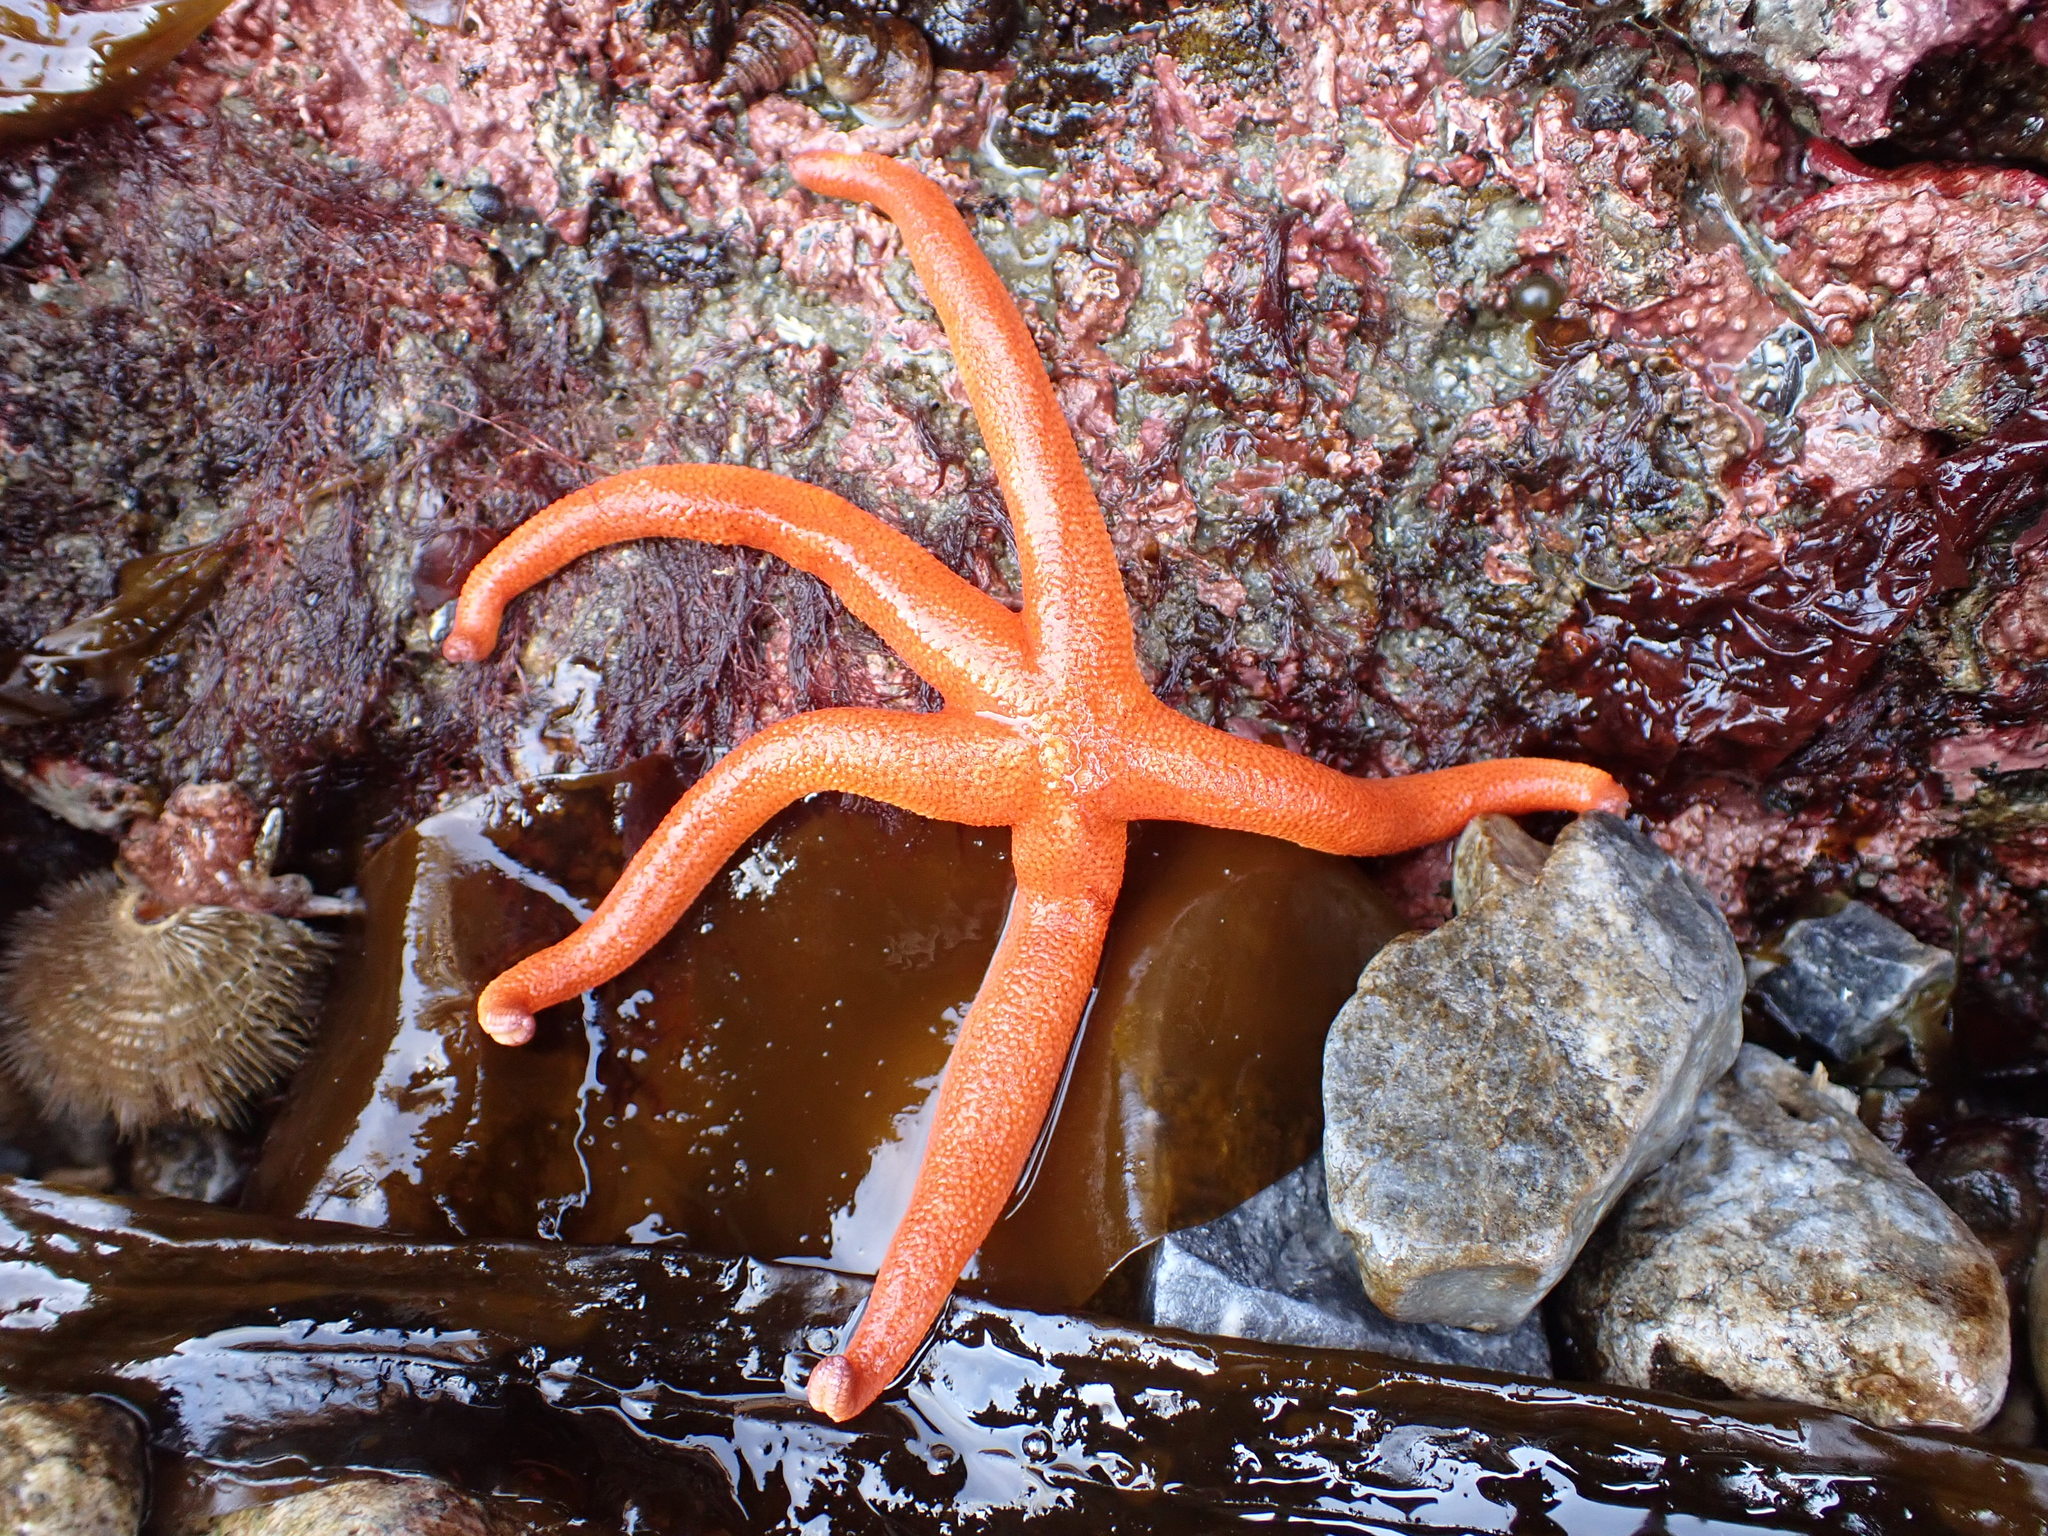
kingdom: Animalia
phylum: Echinodermata
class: Asteroidea
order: Spinulosida
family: Echinasteridae
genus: Henricia
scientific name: Henricia leviuscula
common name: Pacific blood star
